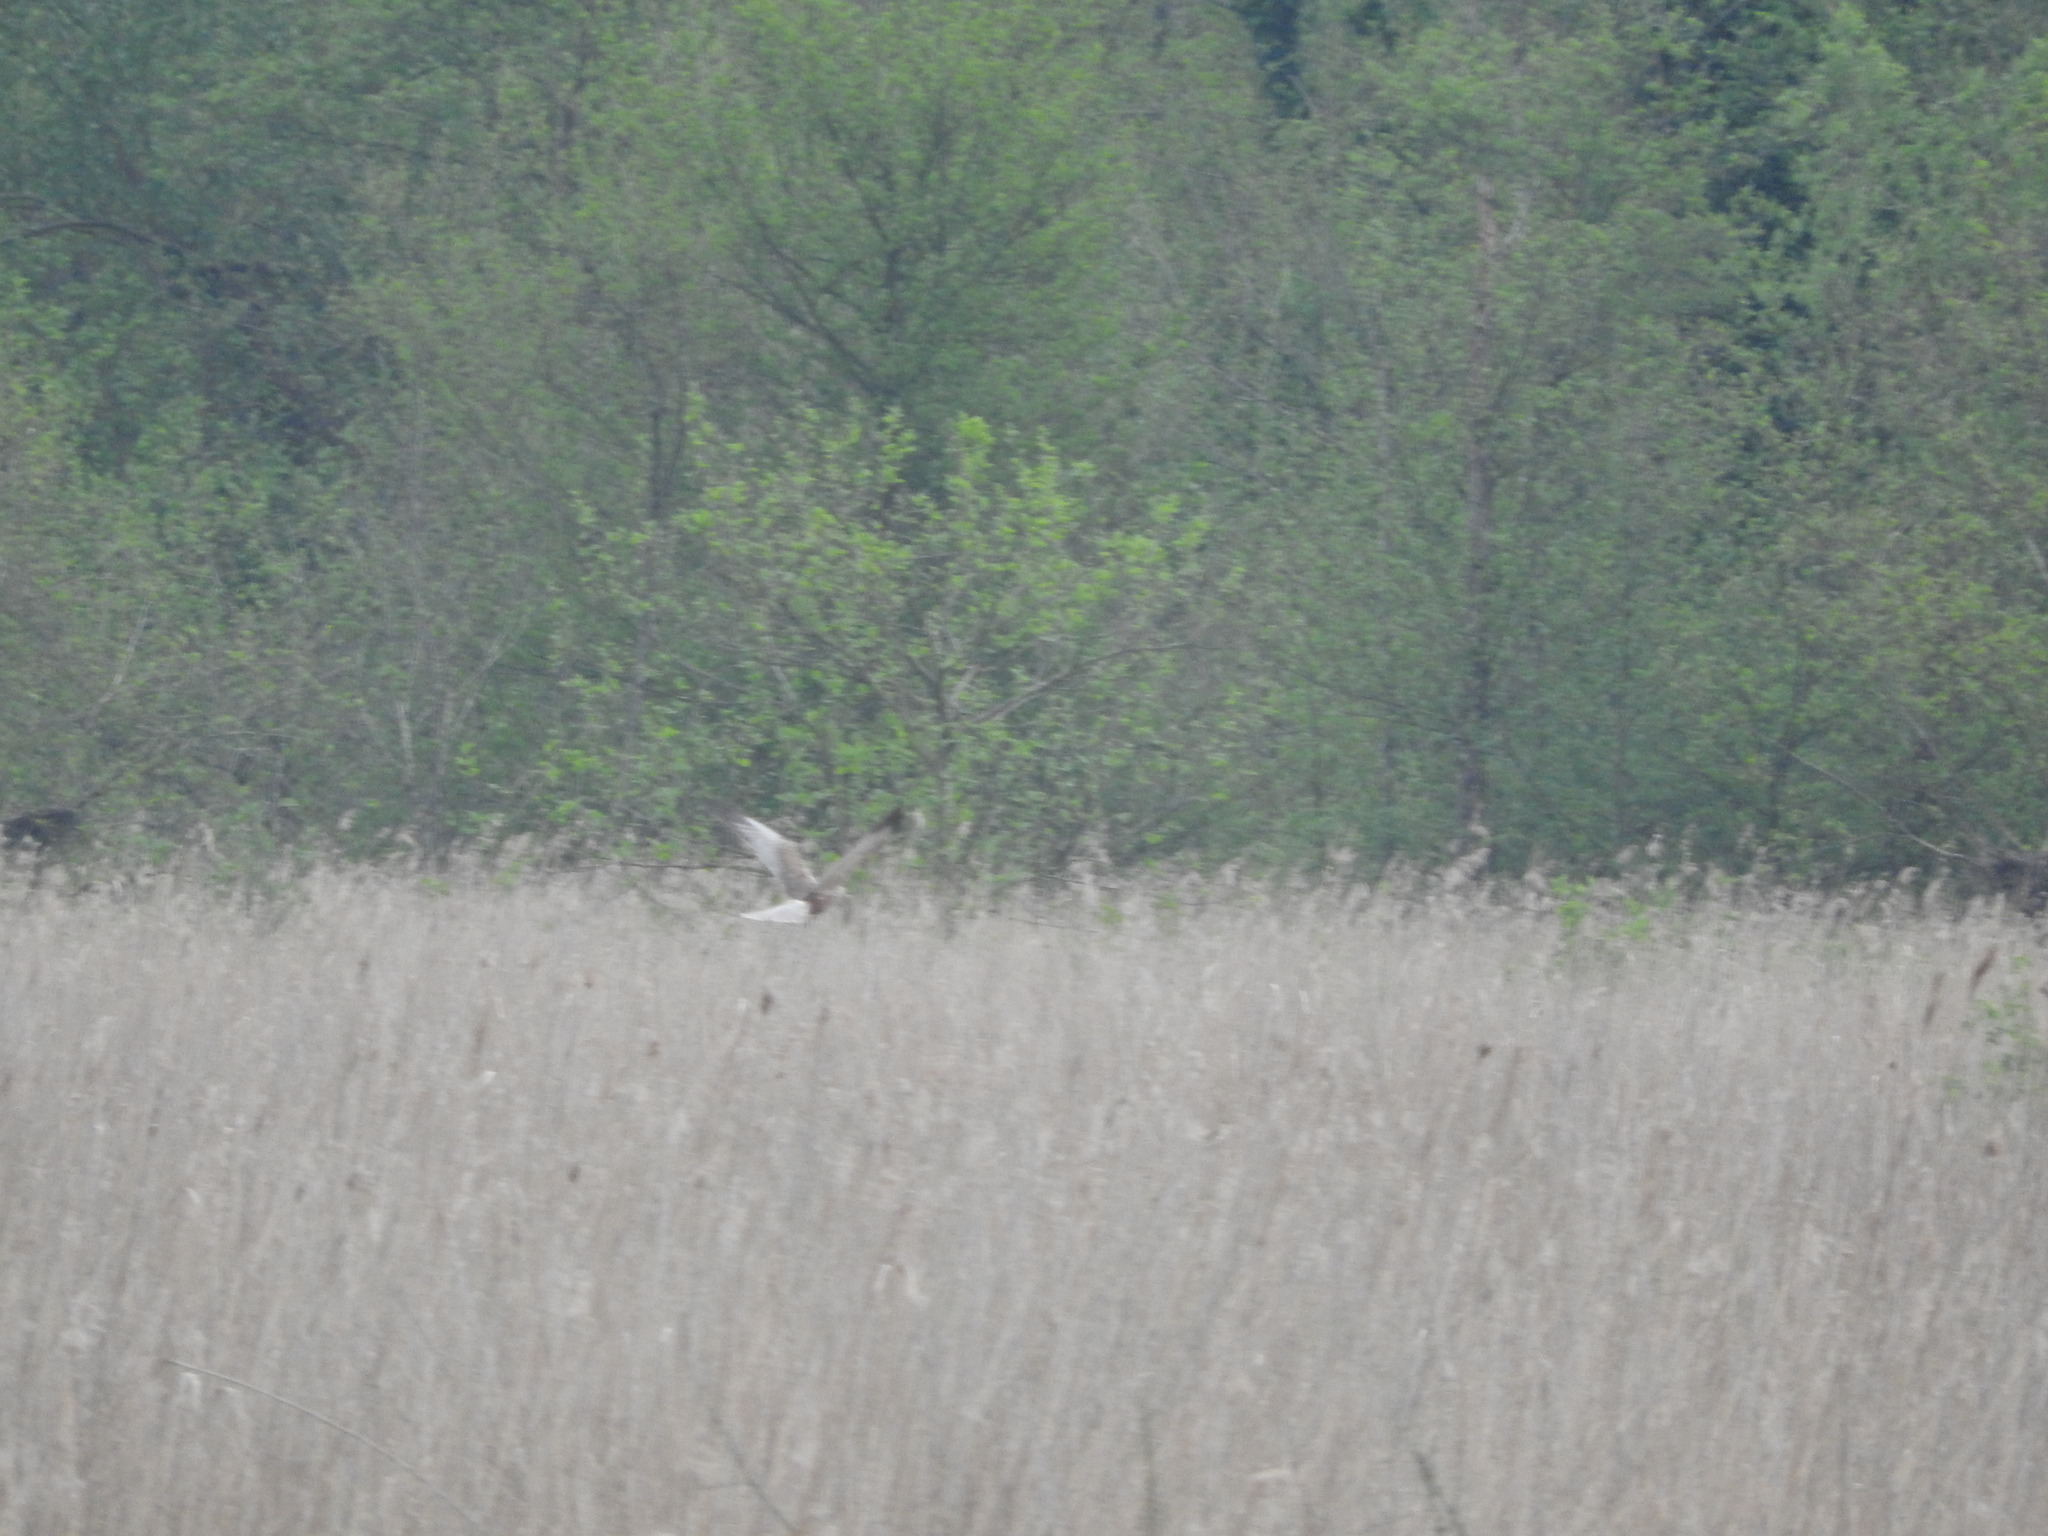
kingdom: Animalia
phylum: Chordata
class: Aves
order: Accipitriformes
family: Accipitridae
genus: Circus
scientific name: Circus aeruginosus
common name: Western marsh harrier
